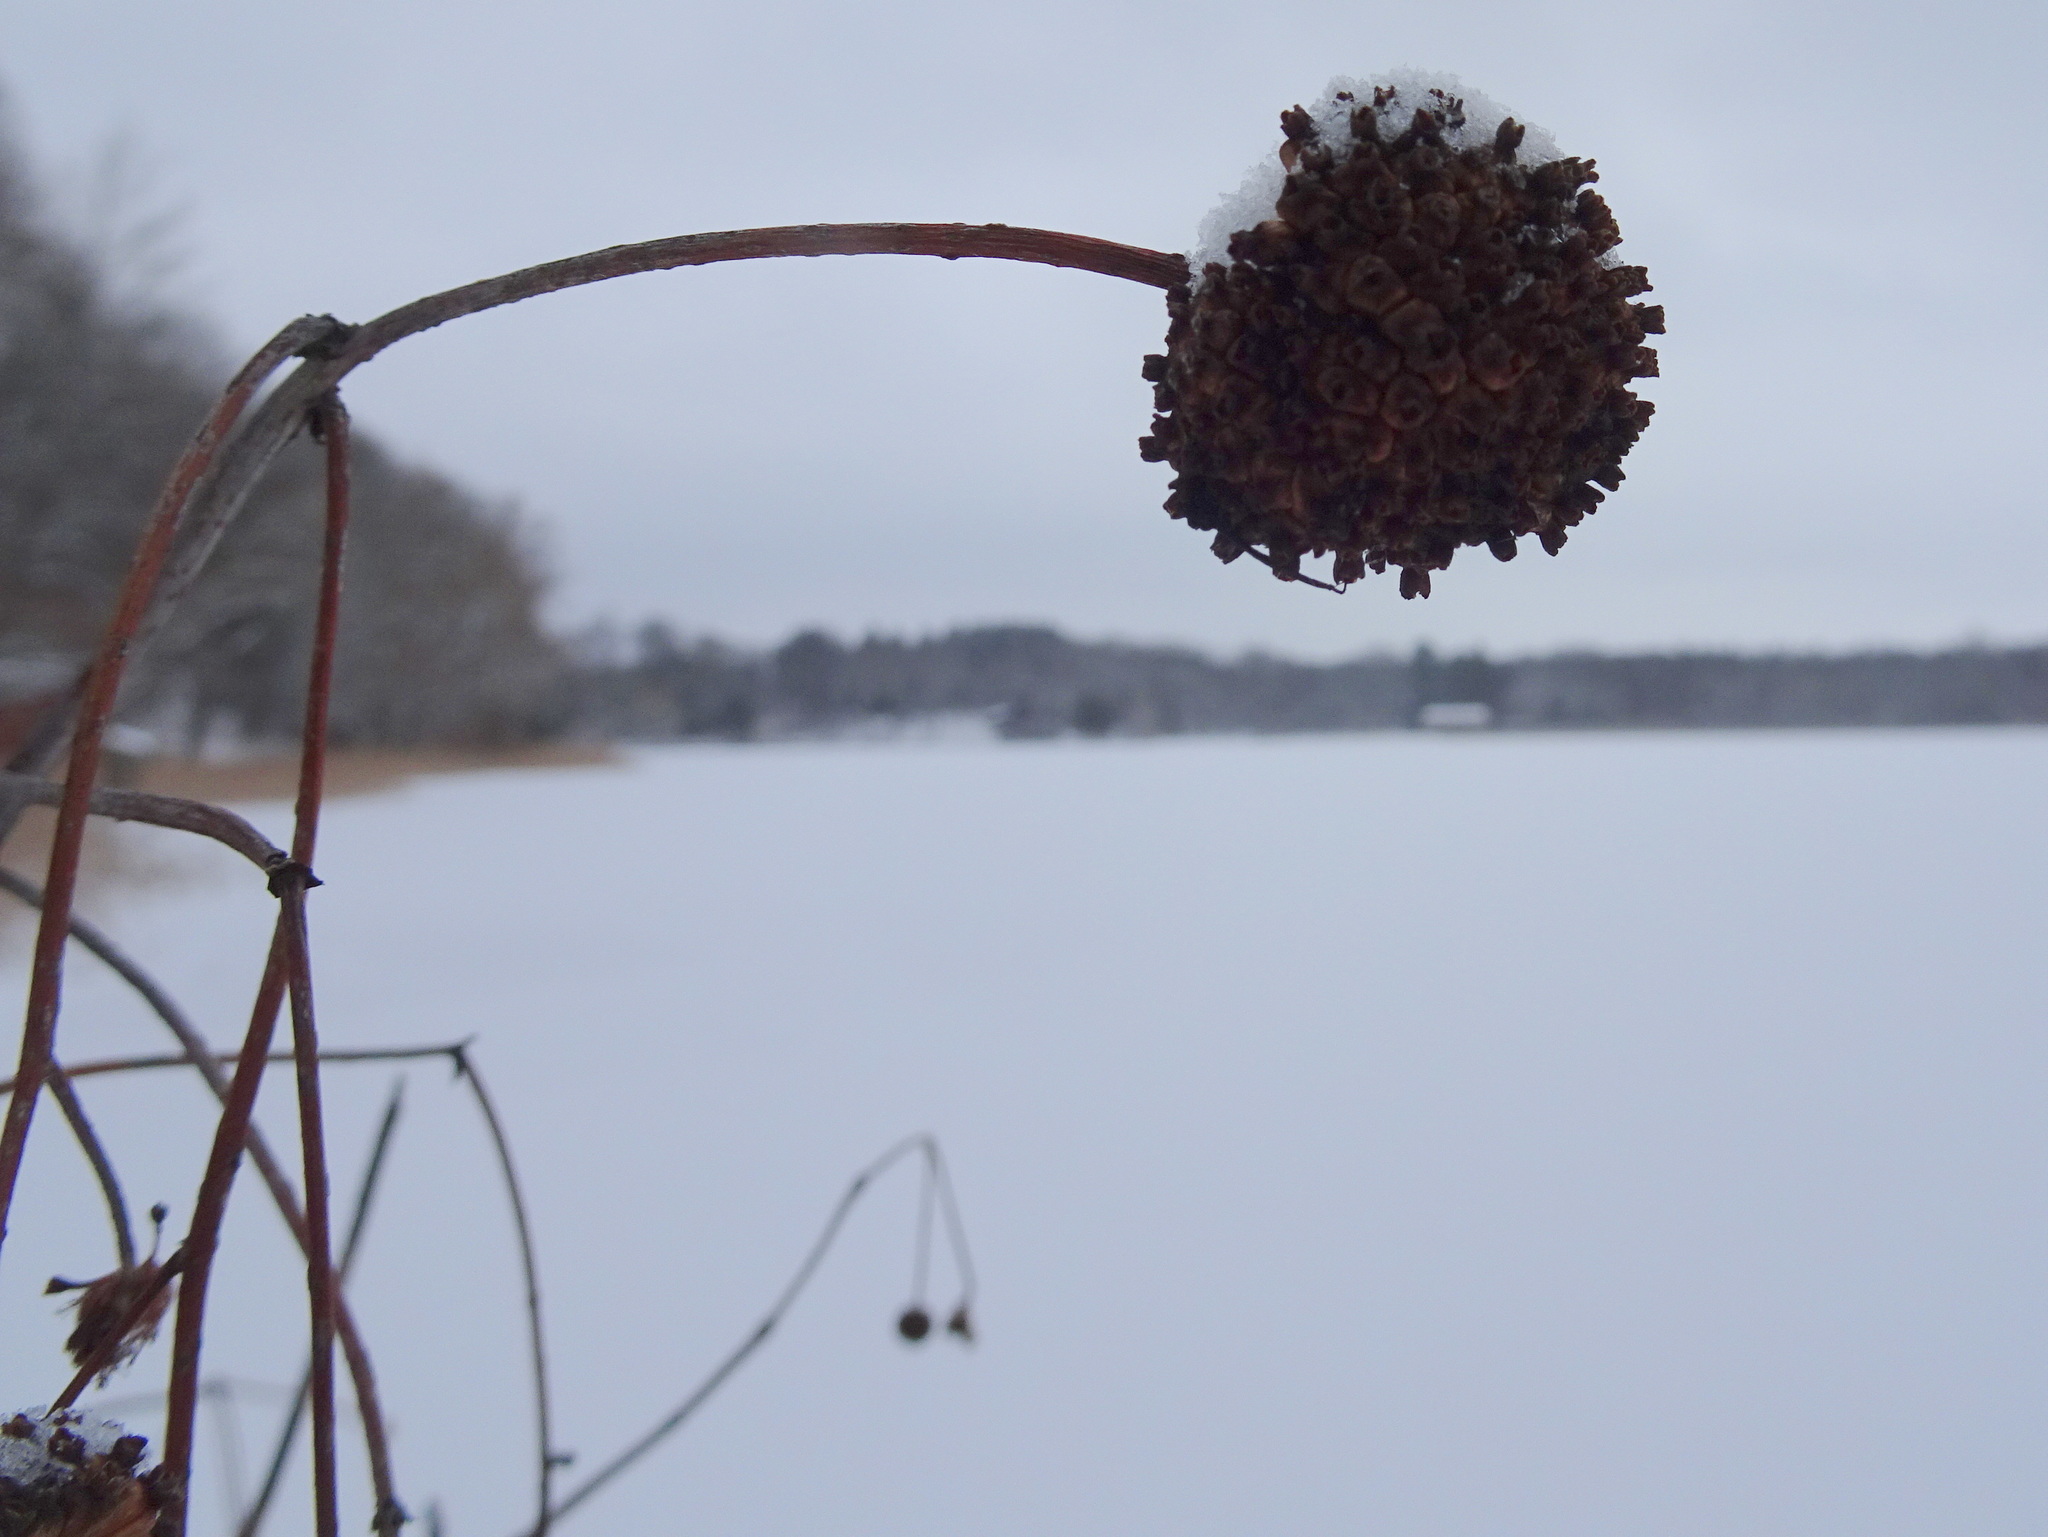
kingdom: Plantae
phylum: Tracheophyta
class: Magnoliopsida
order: Gentianales
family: Rubiaceae
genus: Cephalanthus
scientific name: Cephalanthus occidentalis
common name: Button-willow
